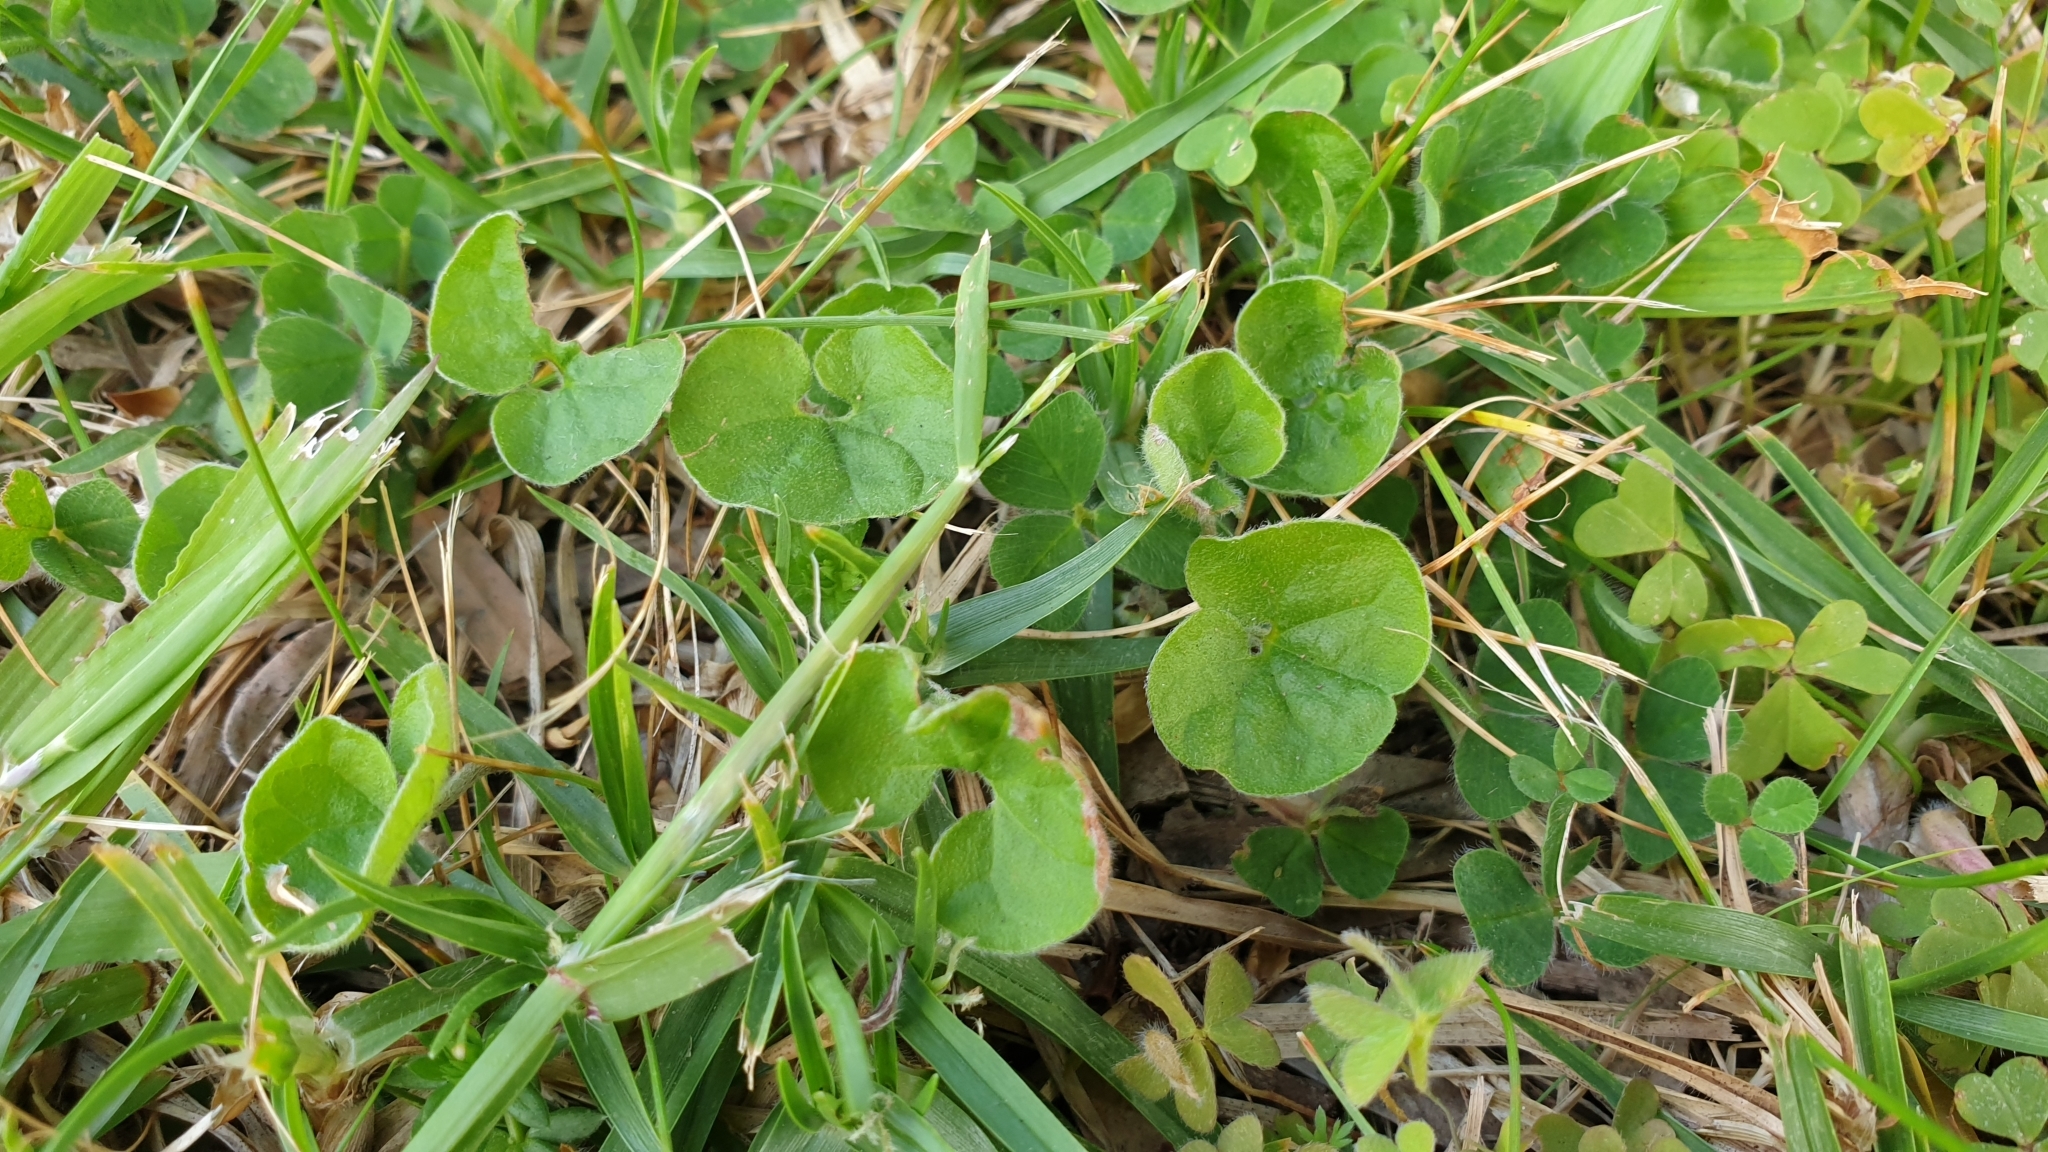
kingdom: Plantae
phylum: Tracheophyta
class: Magnoliopsida
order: Solanales
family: Convolvulaceae
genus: Dichondra
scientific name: Dichondra repens
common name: Kidneyweed
